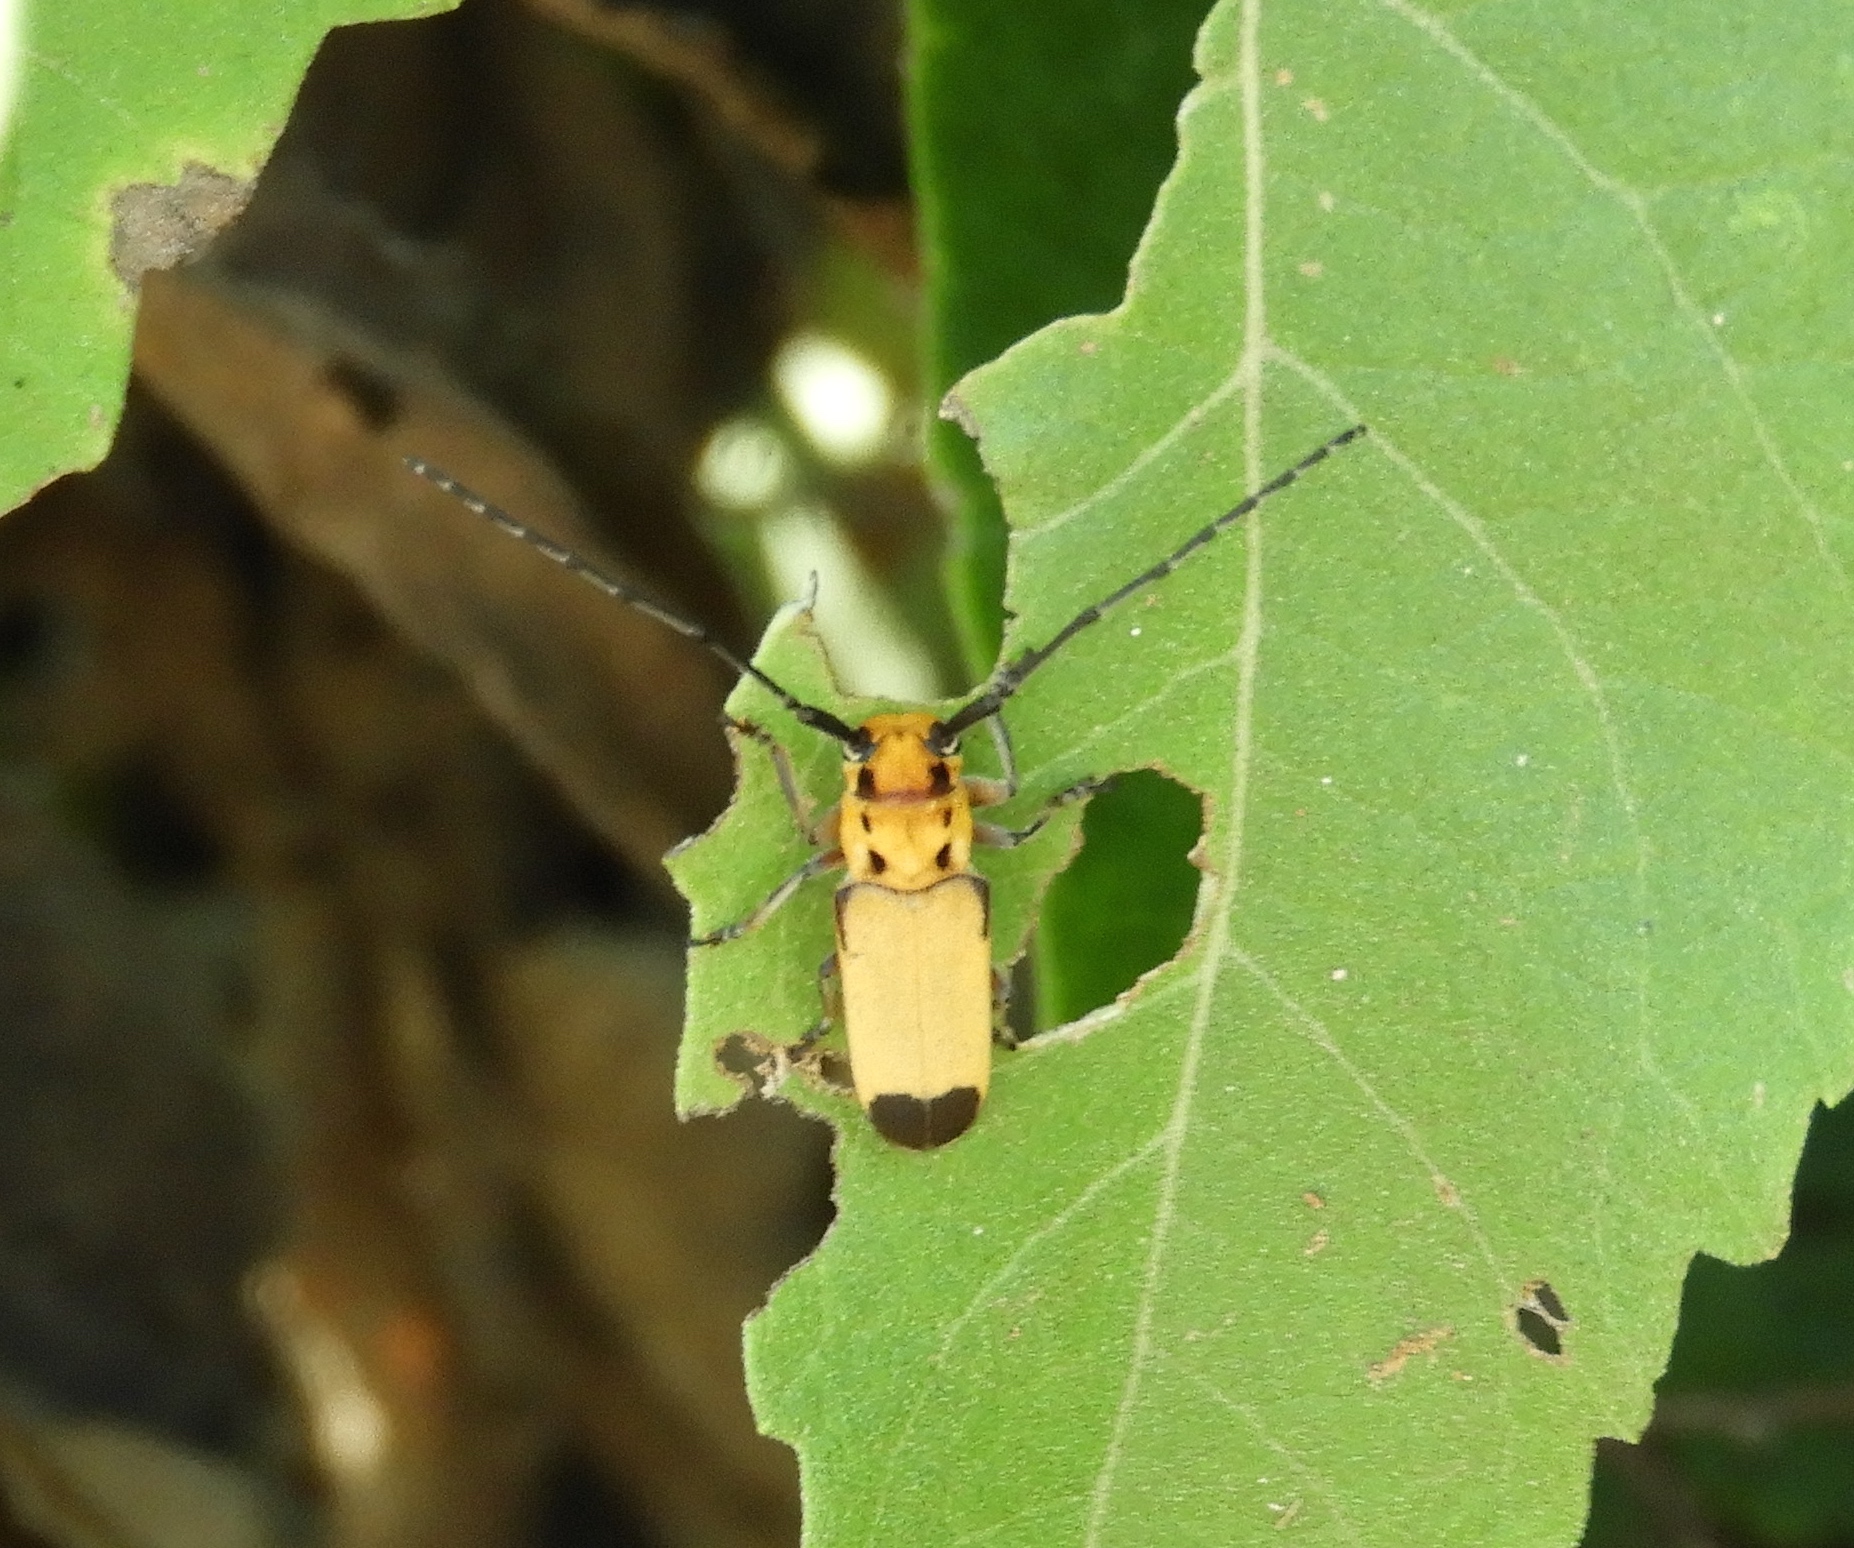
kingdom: Animalia
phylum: Arthropoda
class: Insecta
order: Coleoptera
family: Cerambycidae
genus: Essostrutha
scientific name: Essostrutha laeta
